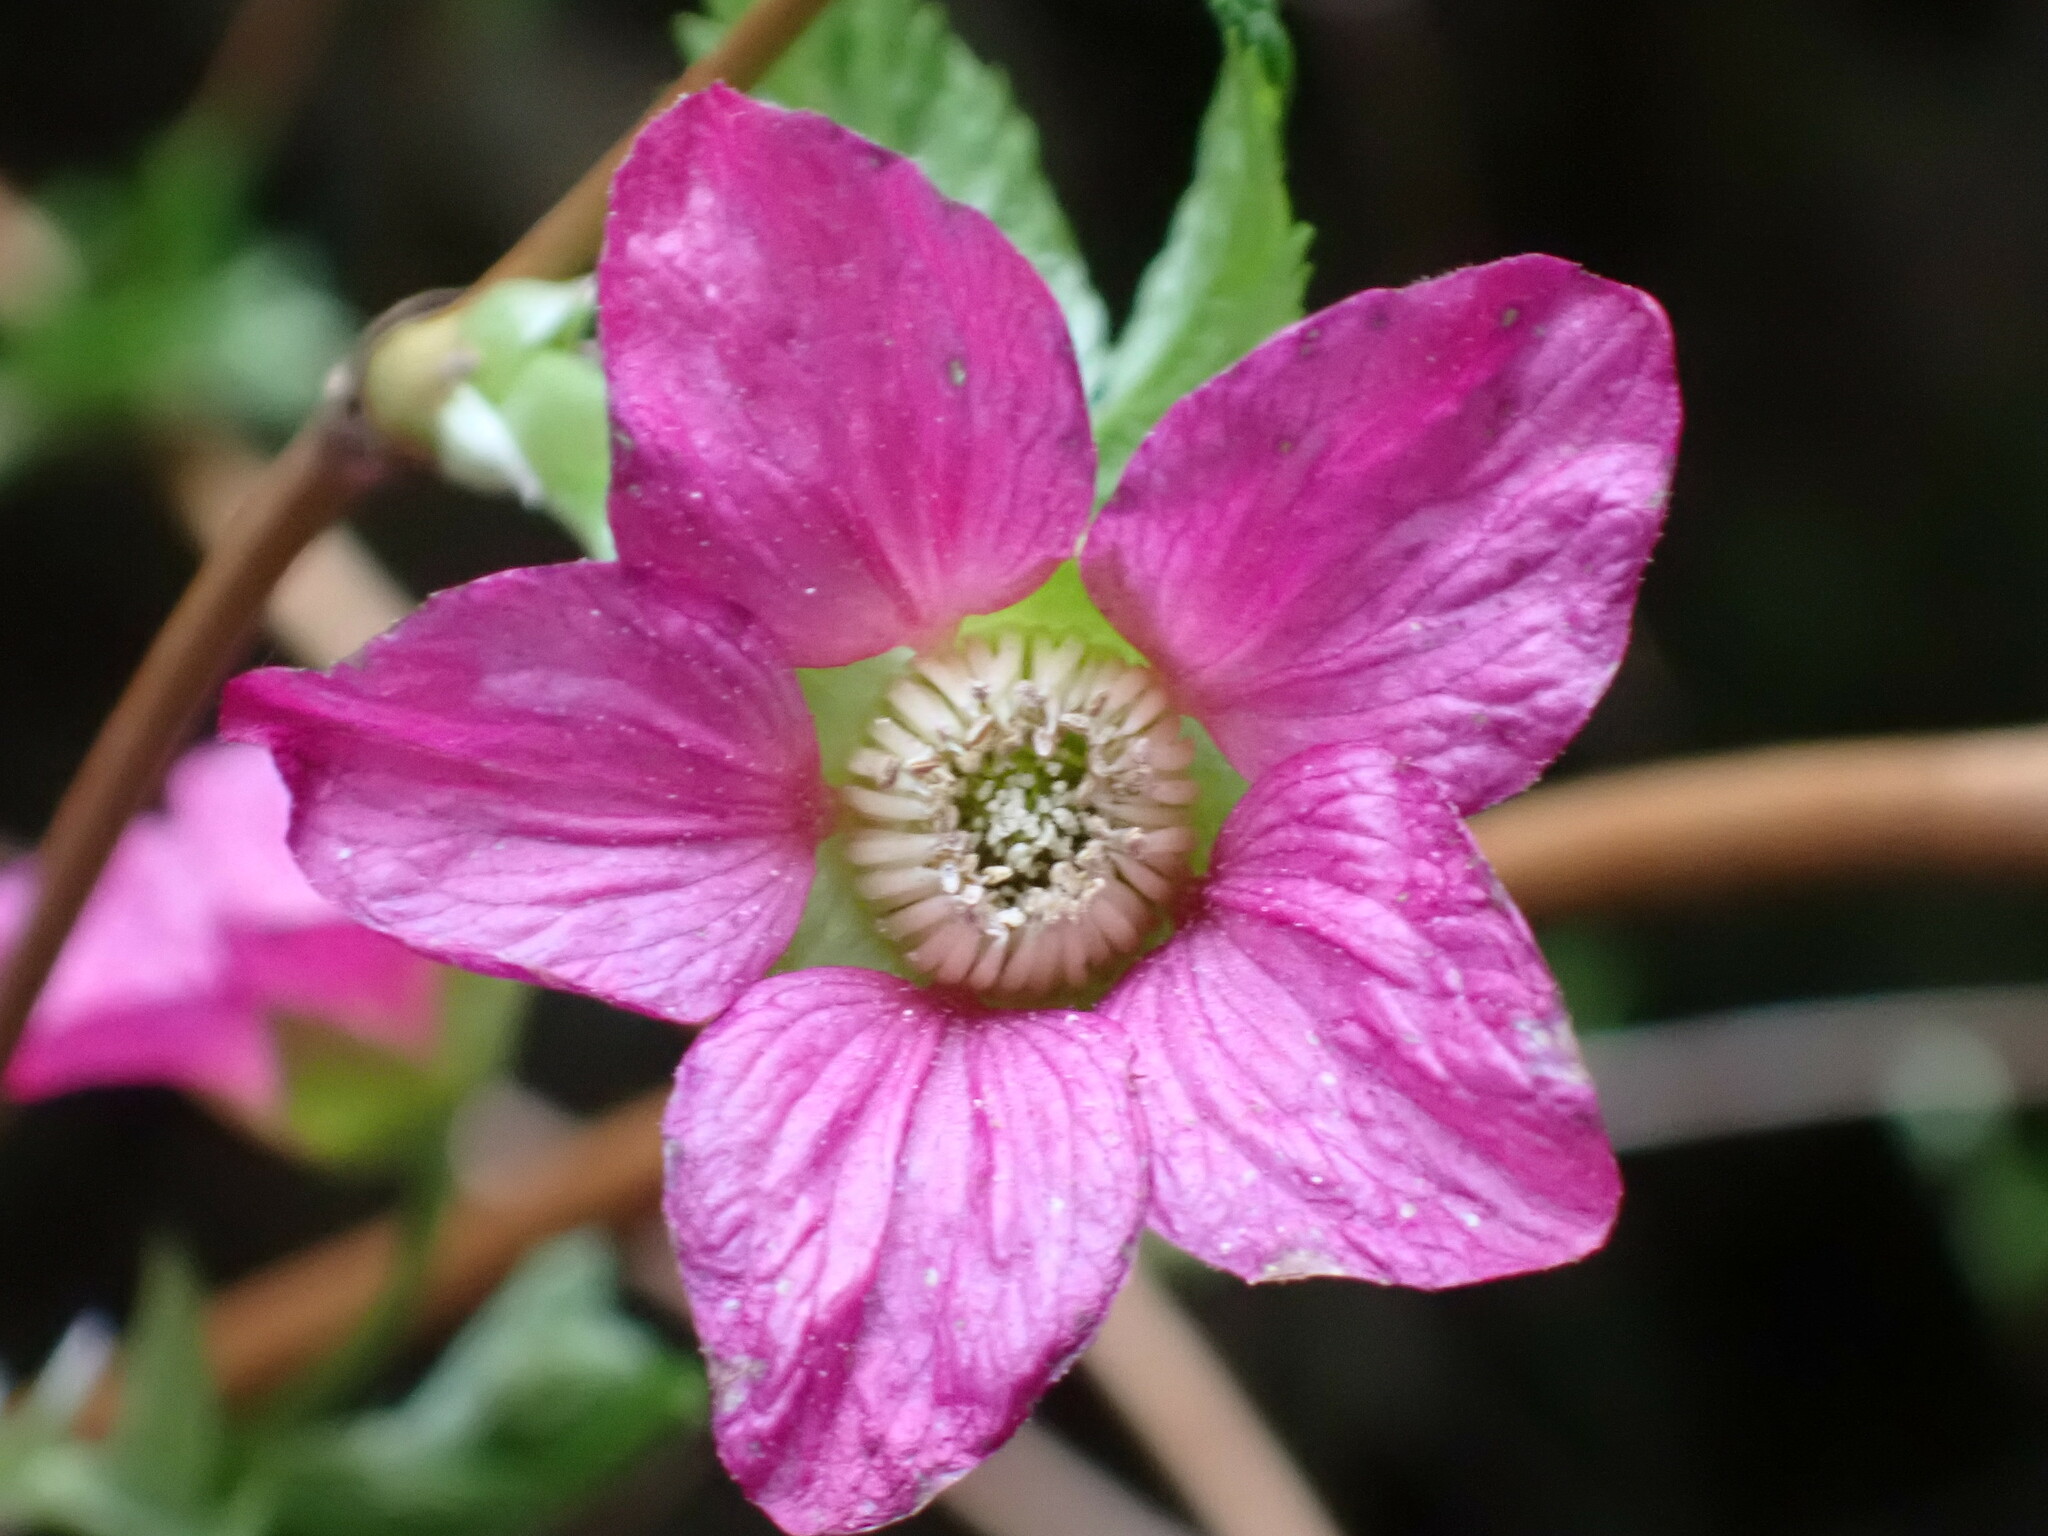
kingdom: Plantae
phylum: Tracheophyta
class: Magnoliopsida
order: Rosales
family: Rosaceae
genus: Rubus
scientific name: Rubus spectabilis
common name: Salmonberry
